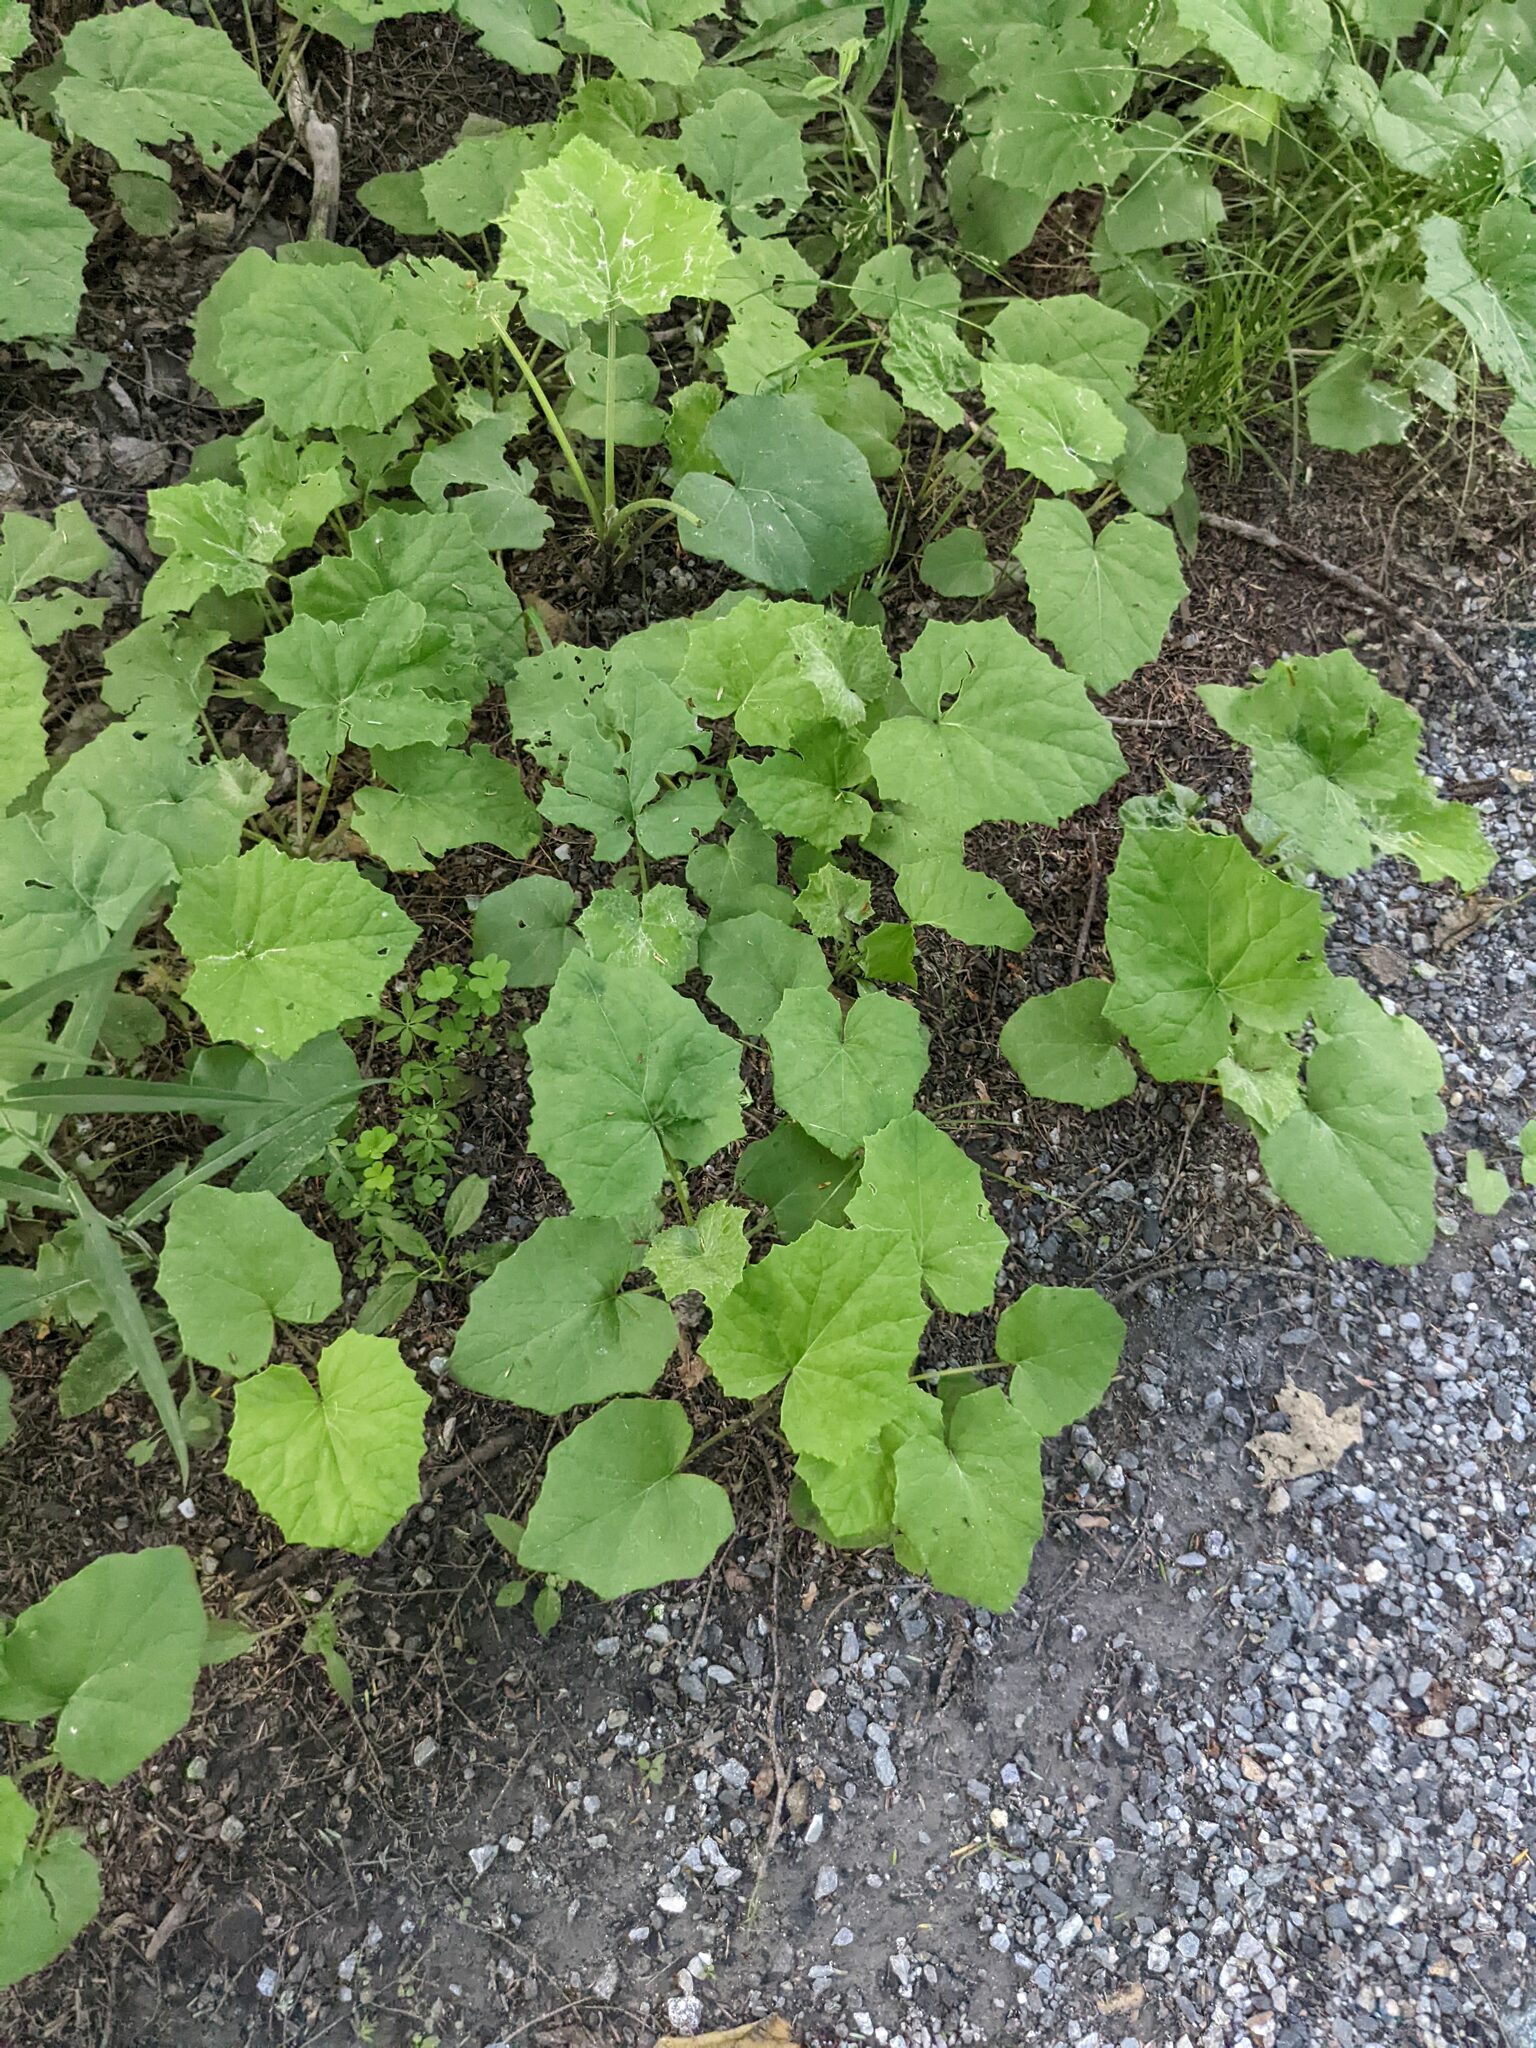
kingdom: Plantae
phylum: Tracheophyta
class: Magnoliopsida
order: Asterales
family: Asteraceae
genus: Tussilago
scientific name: Tussilago farfara
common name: Coltsfoot
